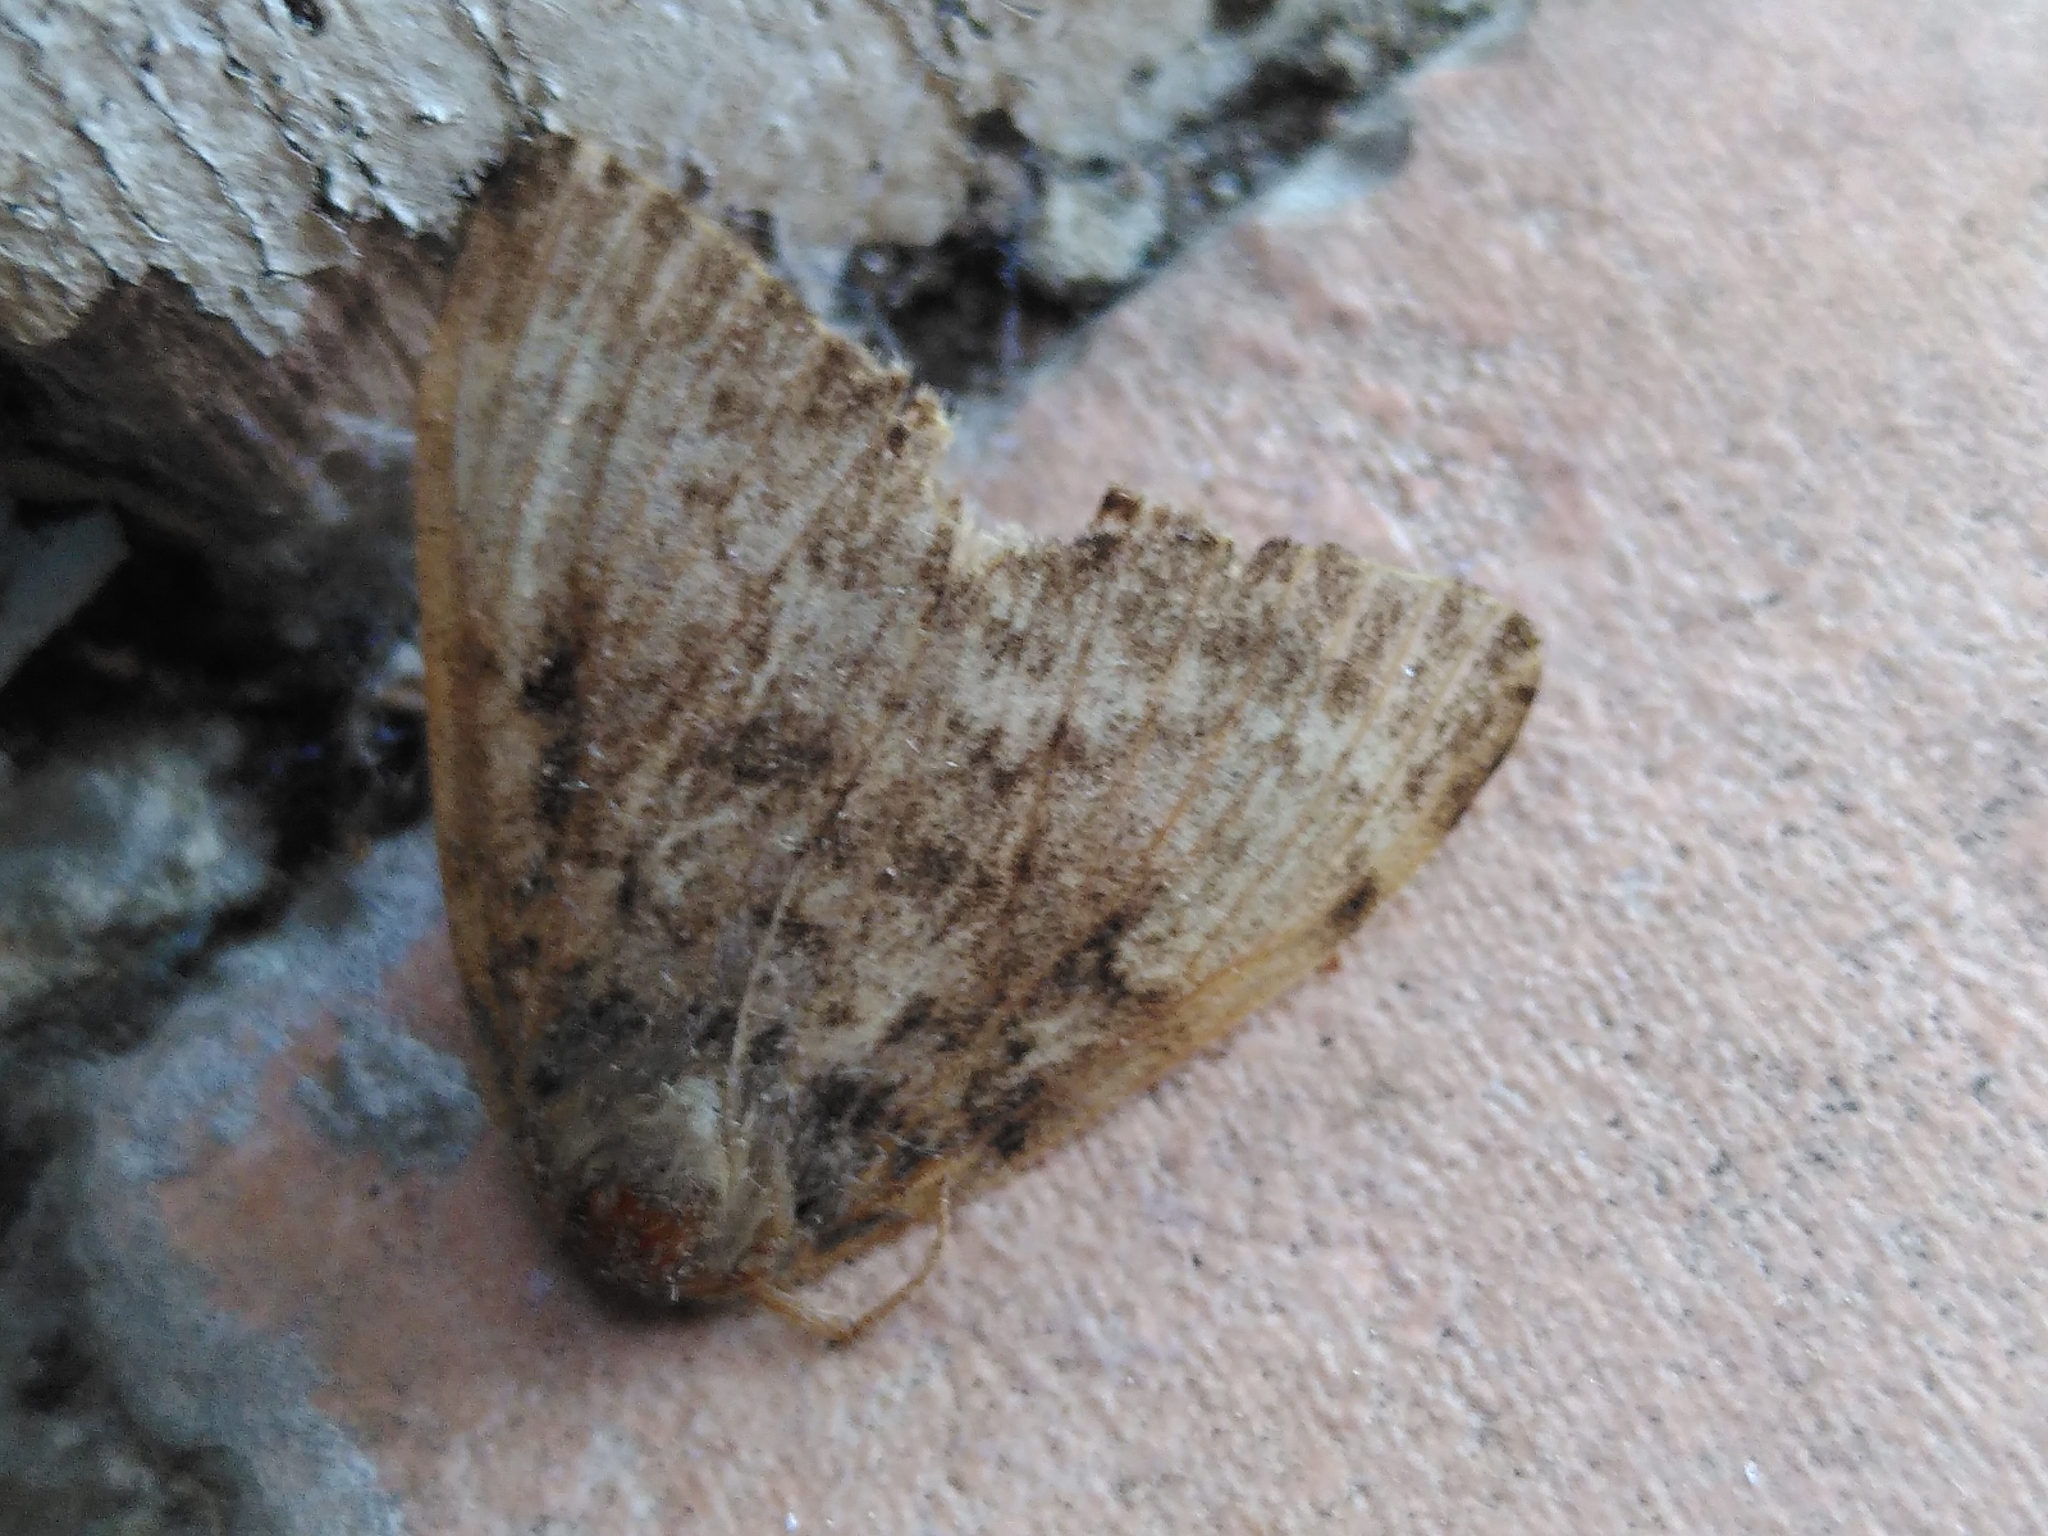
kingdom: Animalia
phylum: Arthropoda
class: Insecta
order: Lepidoptera
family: Erebidae
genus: Lymantria
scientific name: Lymantria dispar
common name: Gypsy moth
